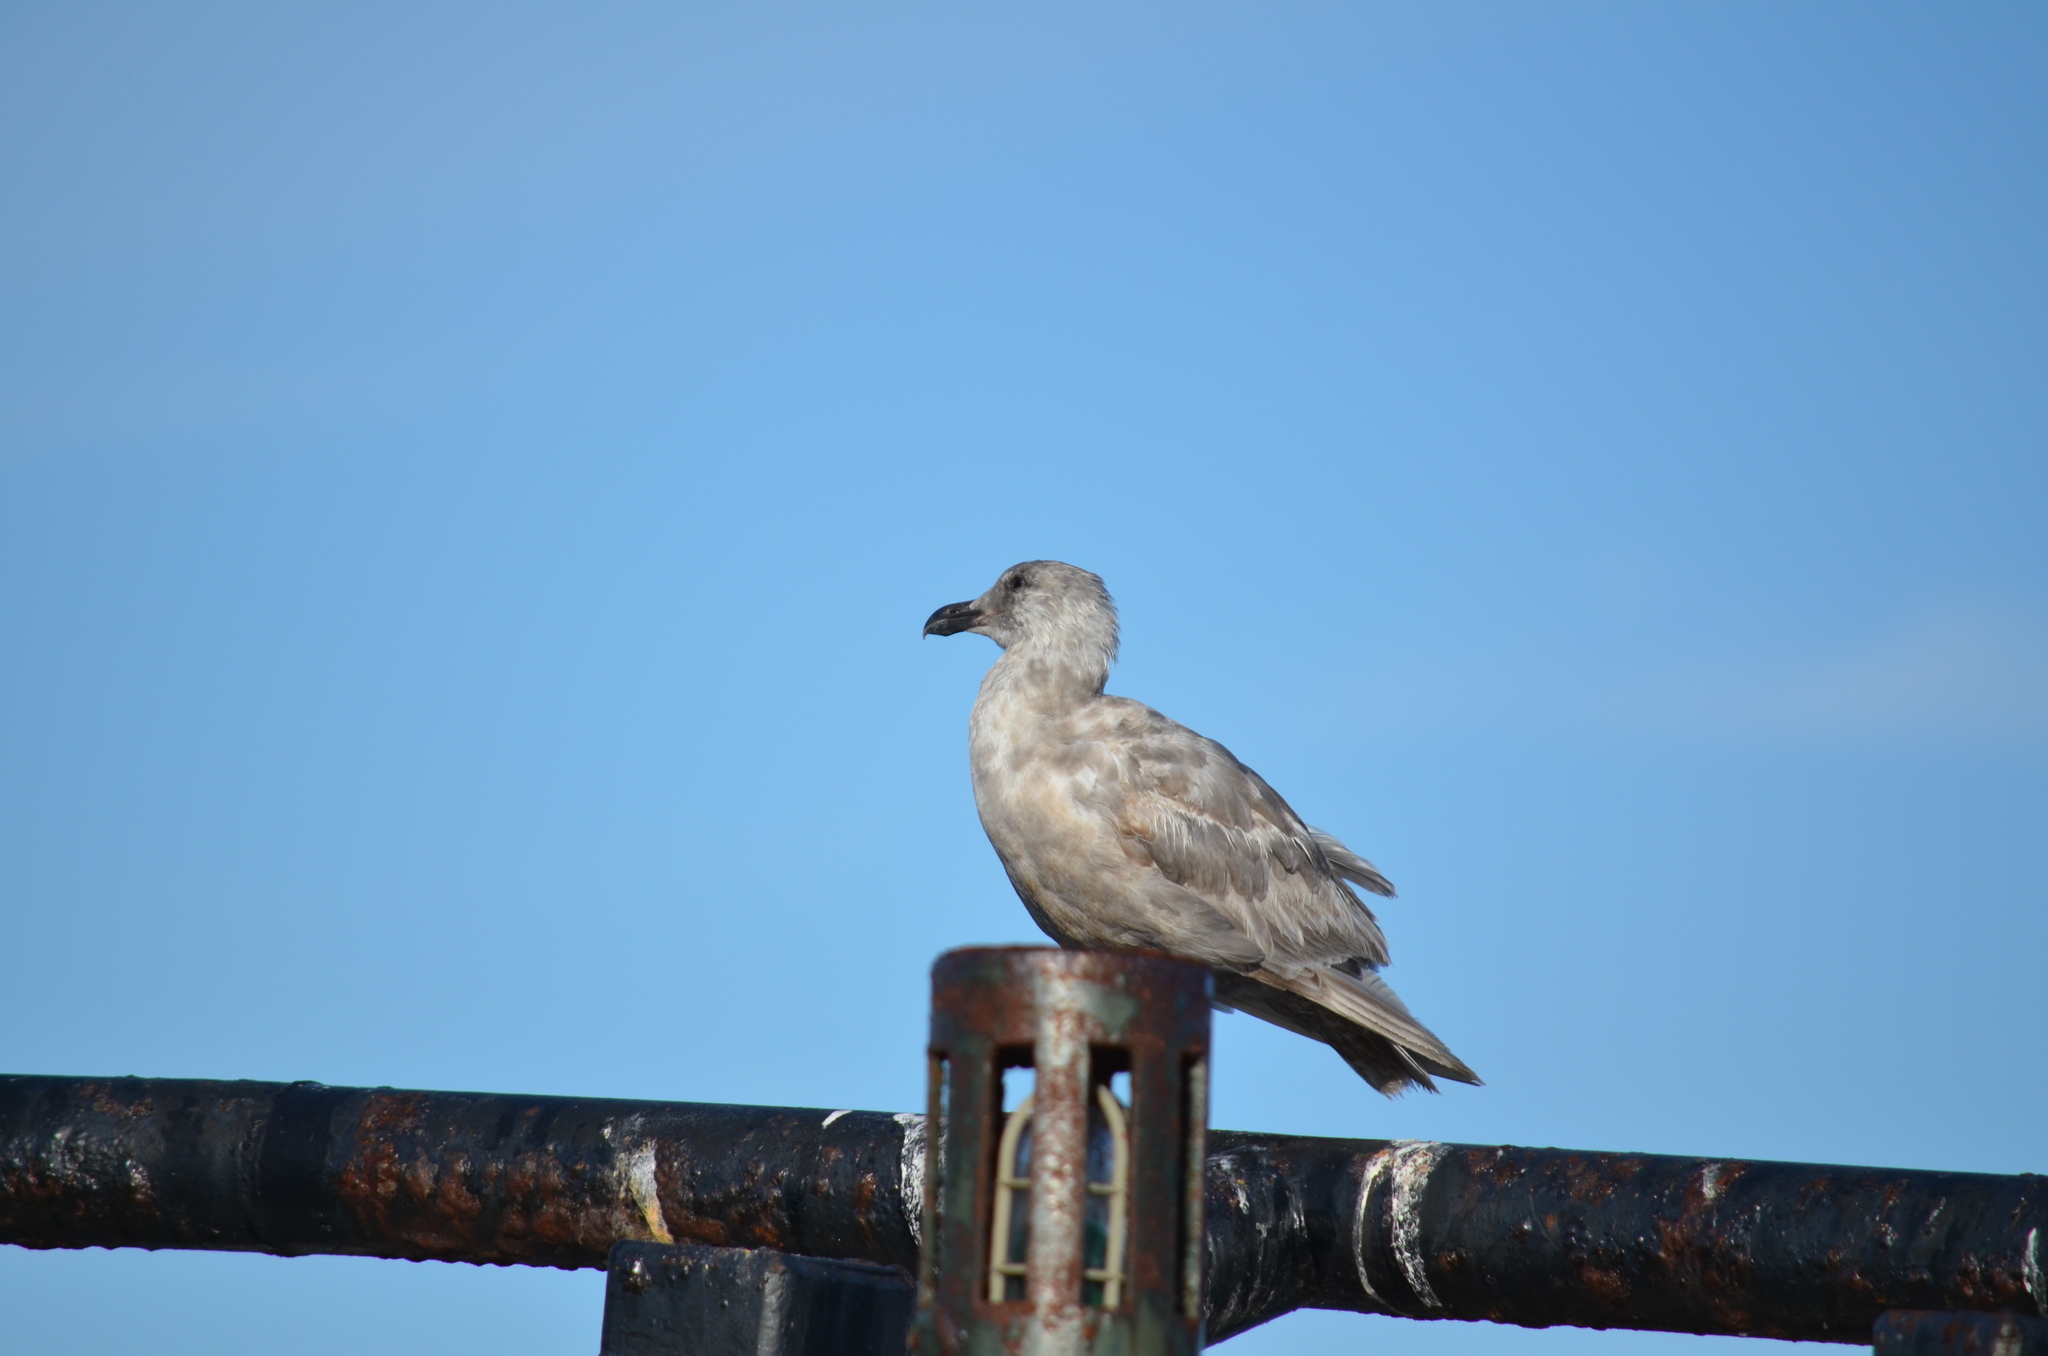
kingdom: Animalia
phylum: Chordata
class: Aves
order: Charadriiformes
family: Laridae
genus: Larus
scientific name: Larus
